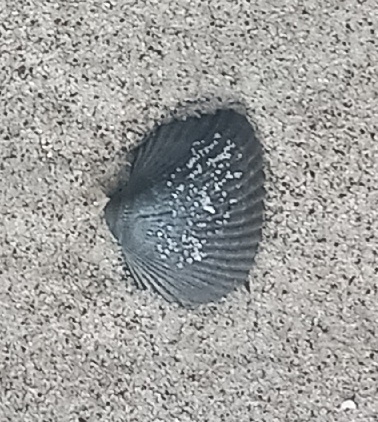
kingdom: Animalia
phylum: Mollusca
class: Bivalvia
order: Arcida
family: Noetiidae
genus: Noetia
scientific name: Noetia ponderosa
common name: Ponderous ark
